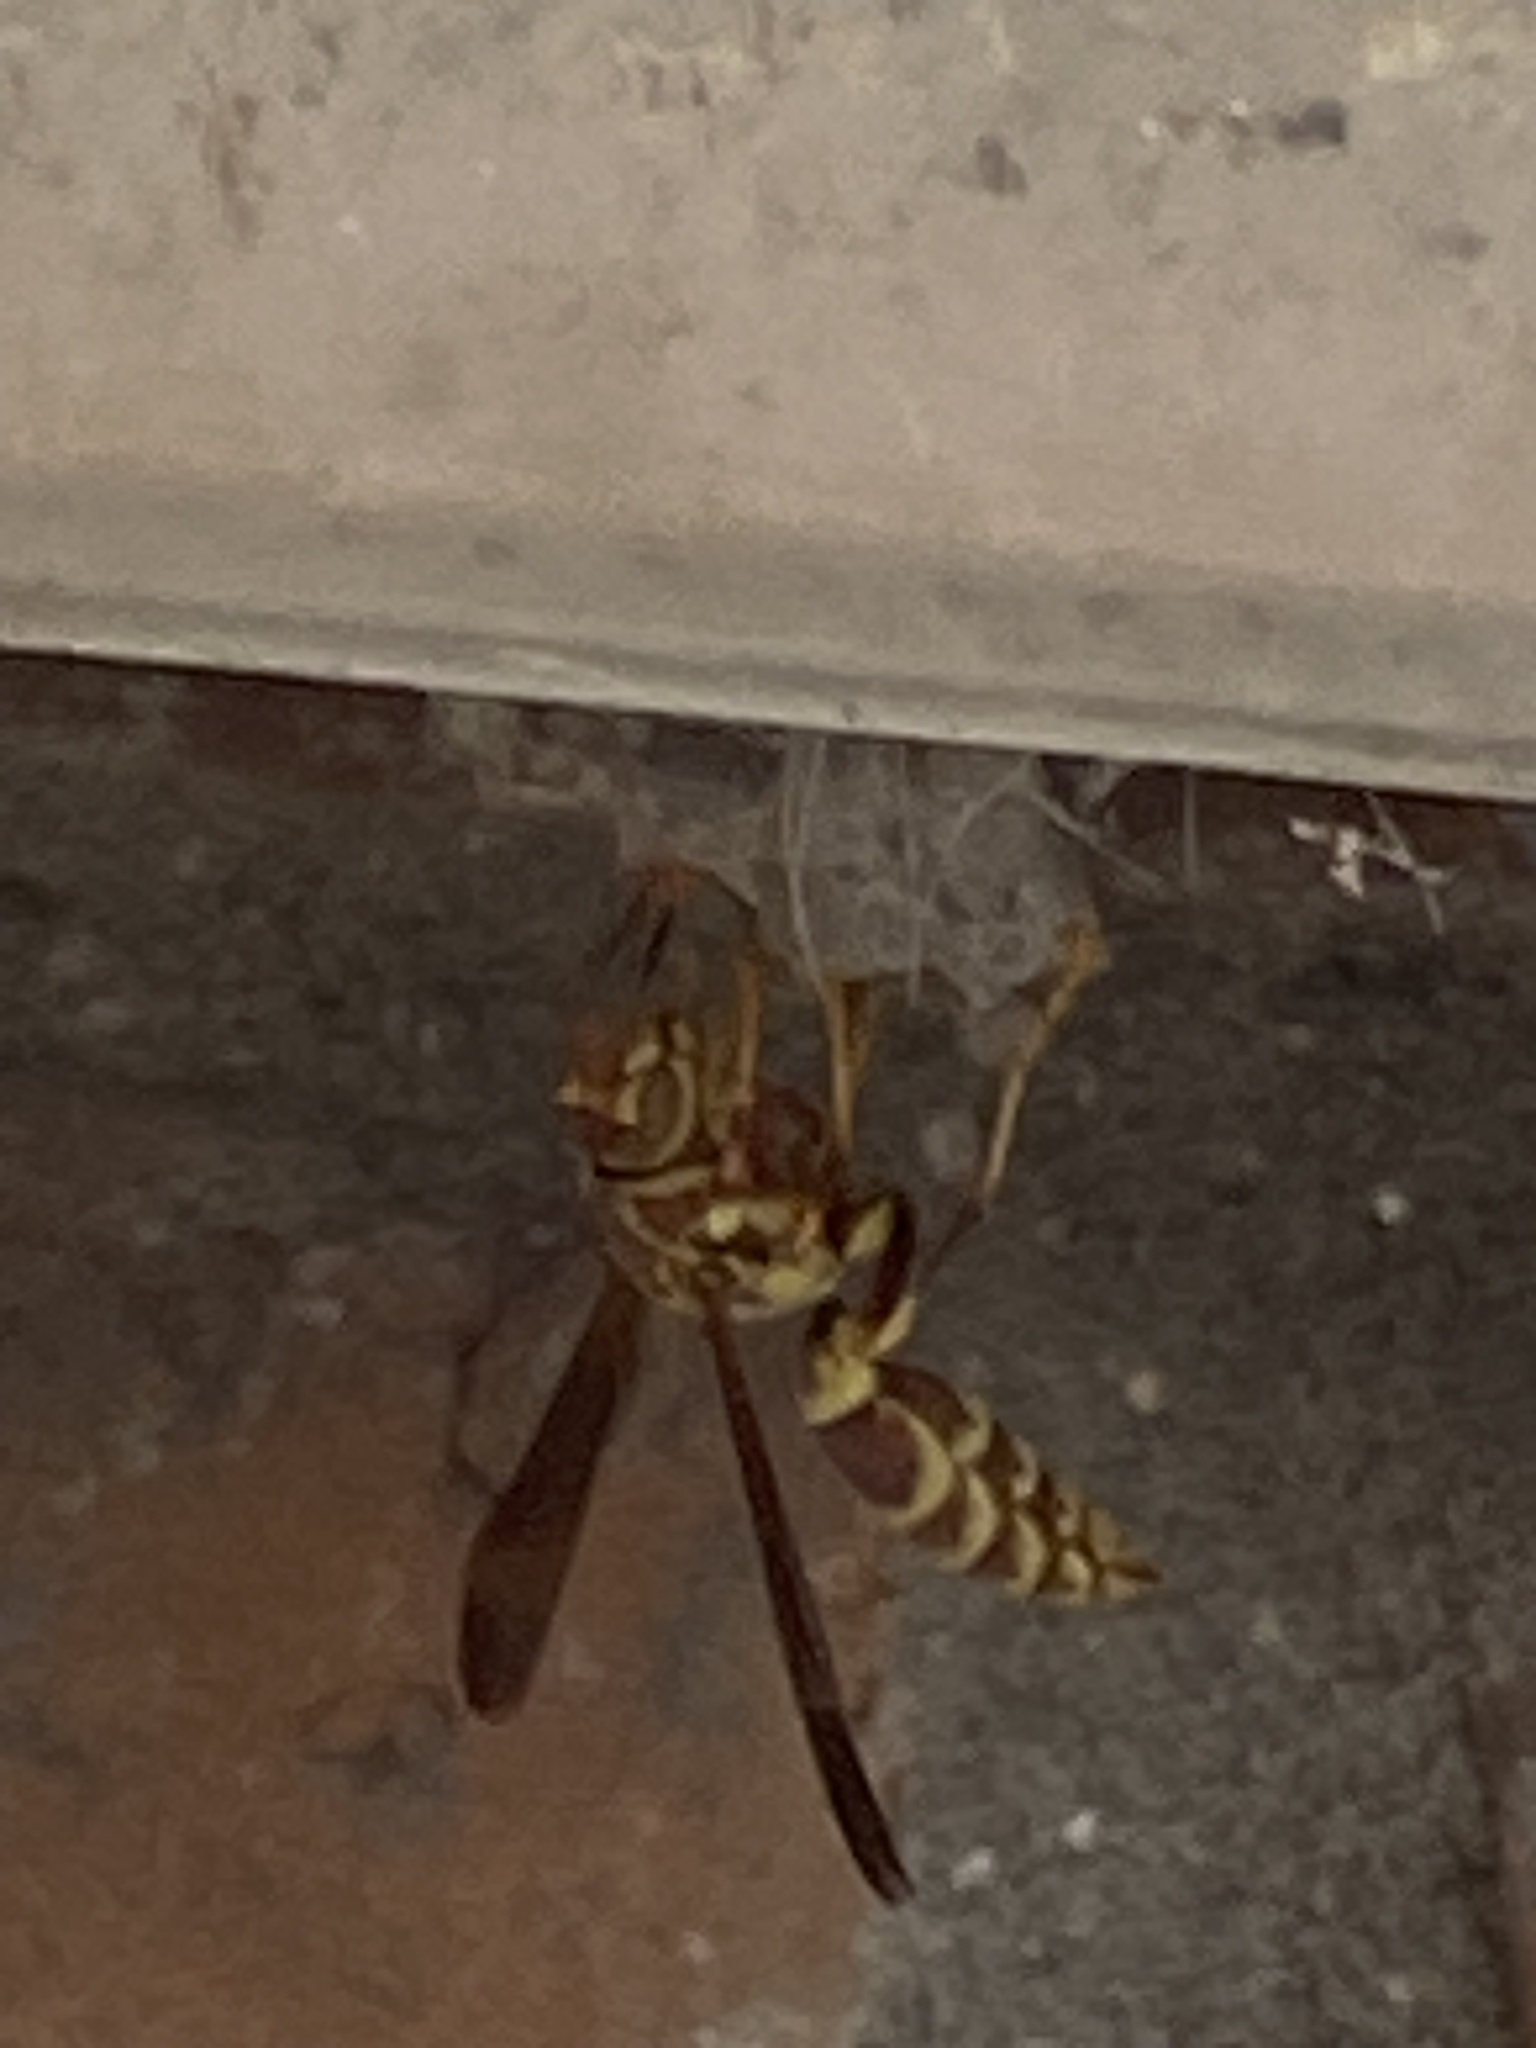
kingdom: Animalia
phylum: Arthropoda
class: Insecta
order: Hymenoptera
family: Eumenidae
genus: Polistes
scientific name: Polistes exclamans
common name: Paper wasp
